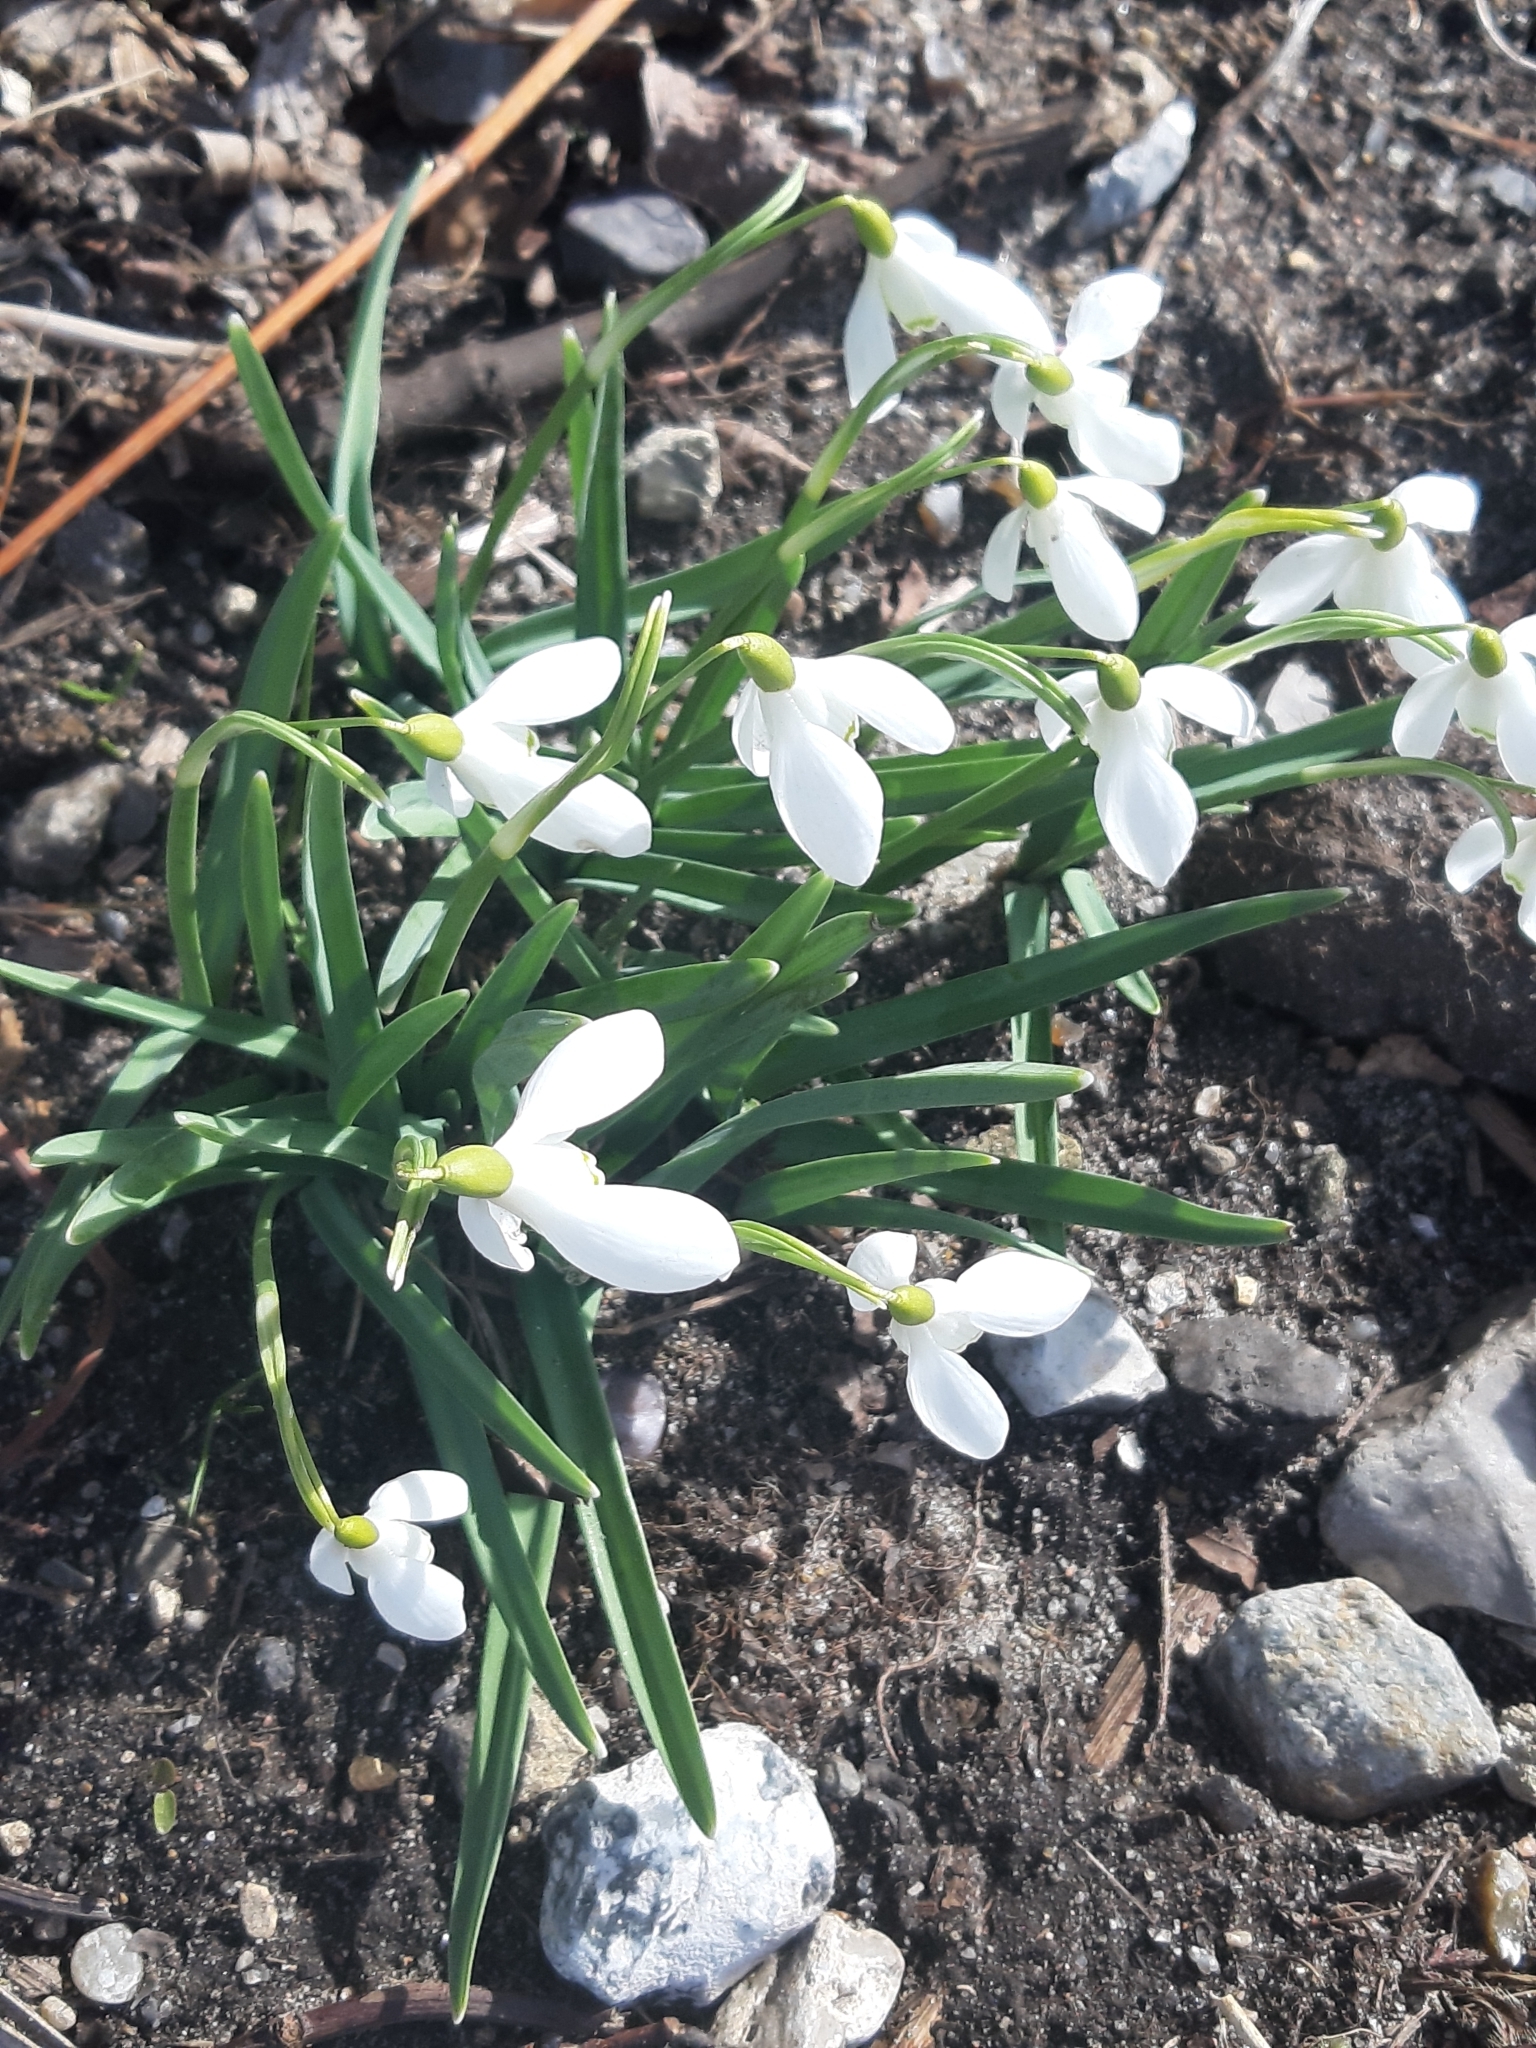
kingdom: Plantae
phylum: Tracheophyta
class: Liliopsida
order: Asparagales
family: Amaryllidaceae
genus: Galanthus
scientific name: Galanthus nivalis
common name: Snowdrop
